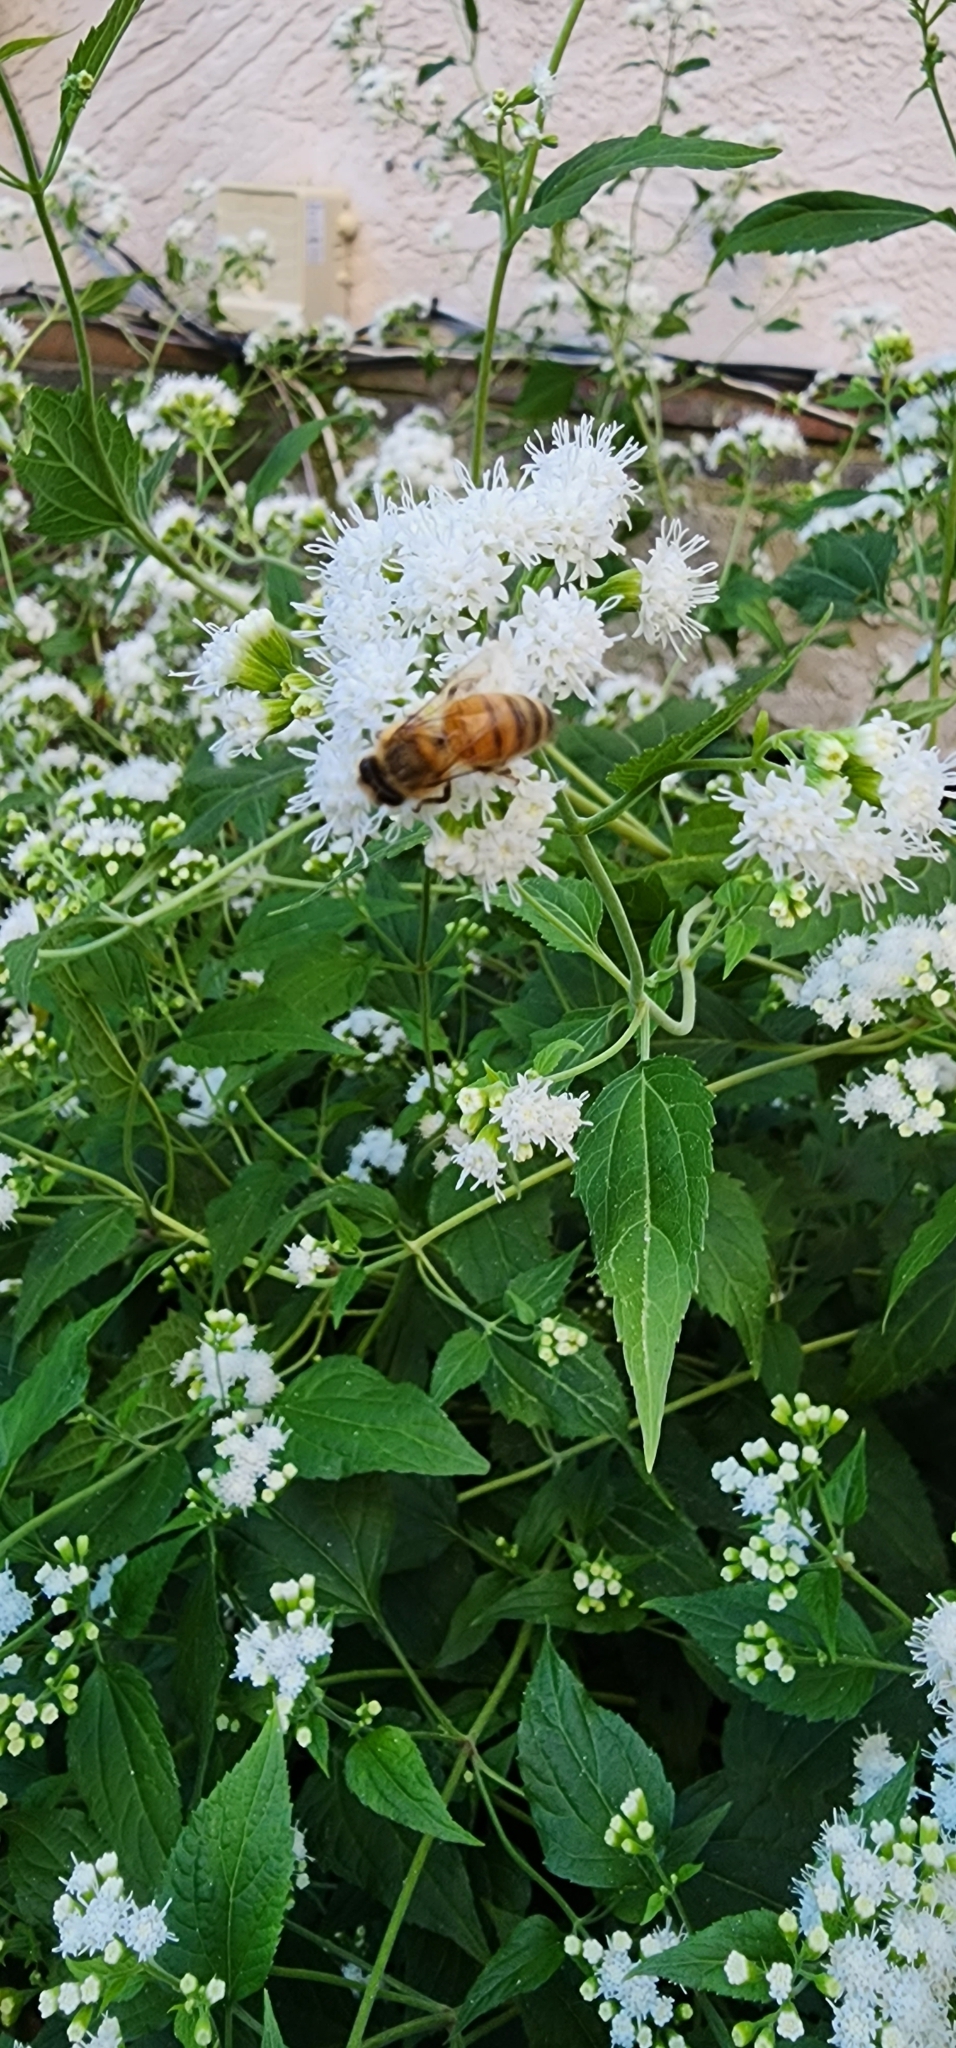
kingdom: Plantae
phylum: Tracheophyta
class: Magnoliopsida
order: Asterales
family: Asteraceae
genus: Ageratina
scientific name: Ageratina altissima
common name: White snakeroot
